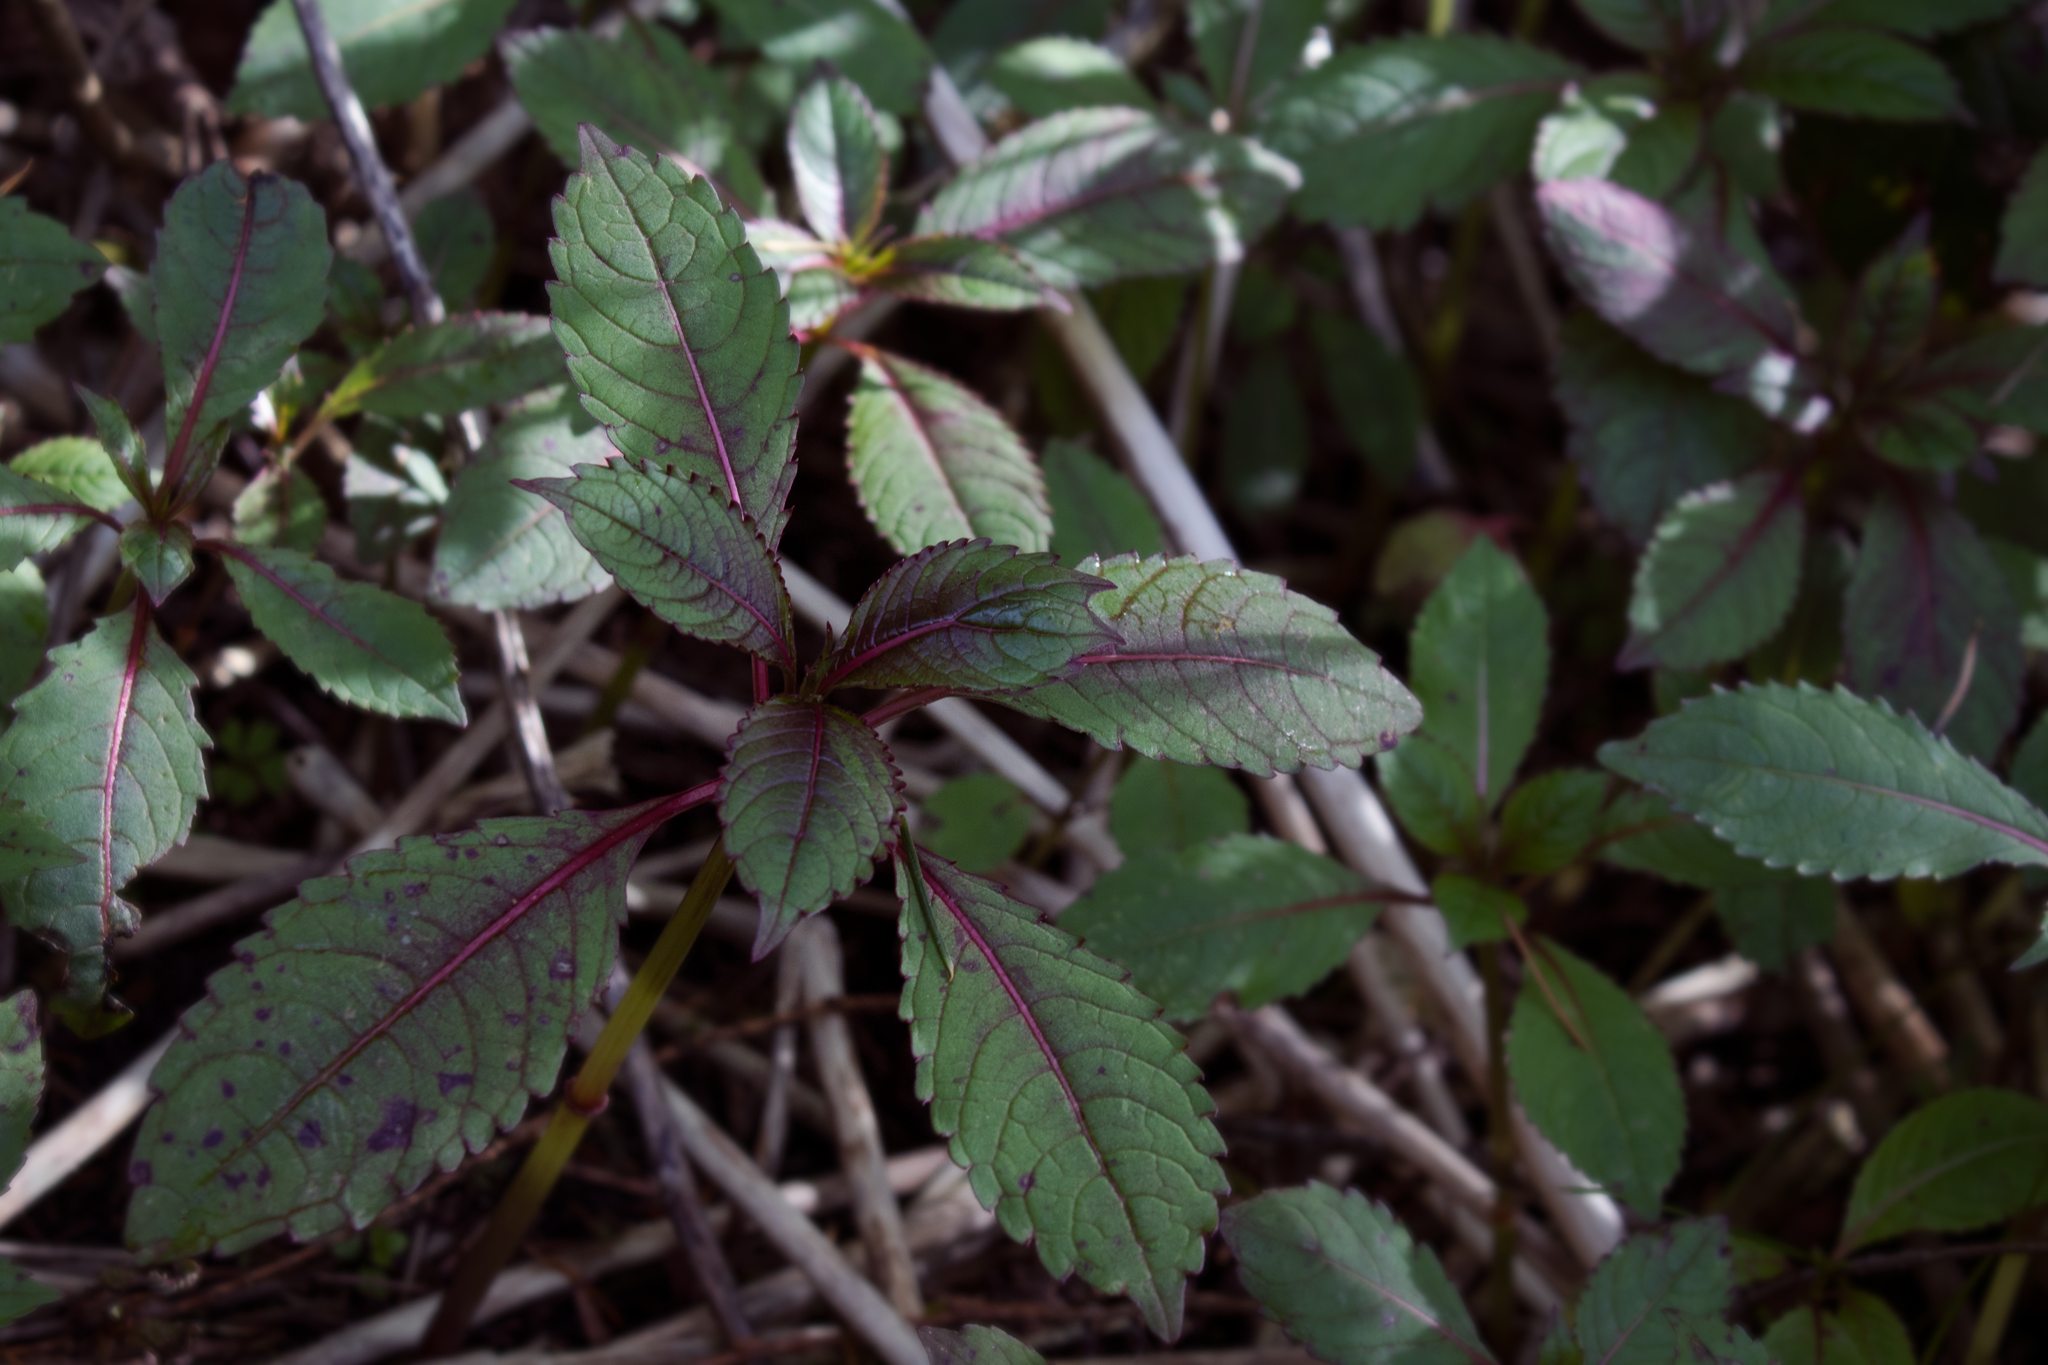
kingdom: Plantae
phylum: Tracheophyta
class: Magnoliopsida
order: Ericales
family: Balsaminaceae
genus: Impatiens
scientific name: Impatiens glandulifera
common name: Himalayan balsam
